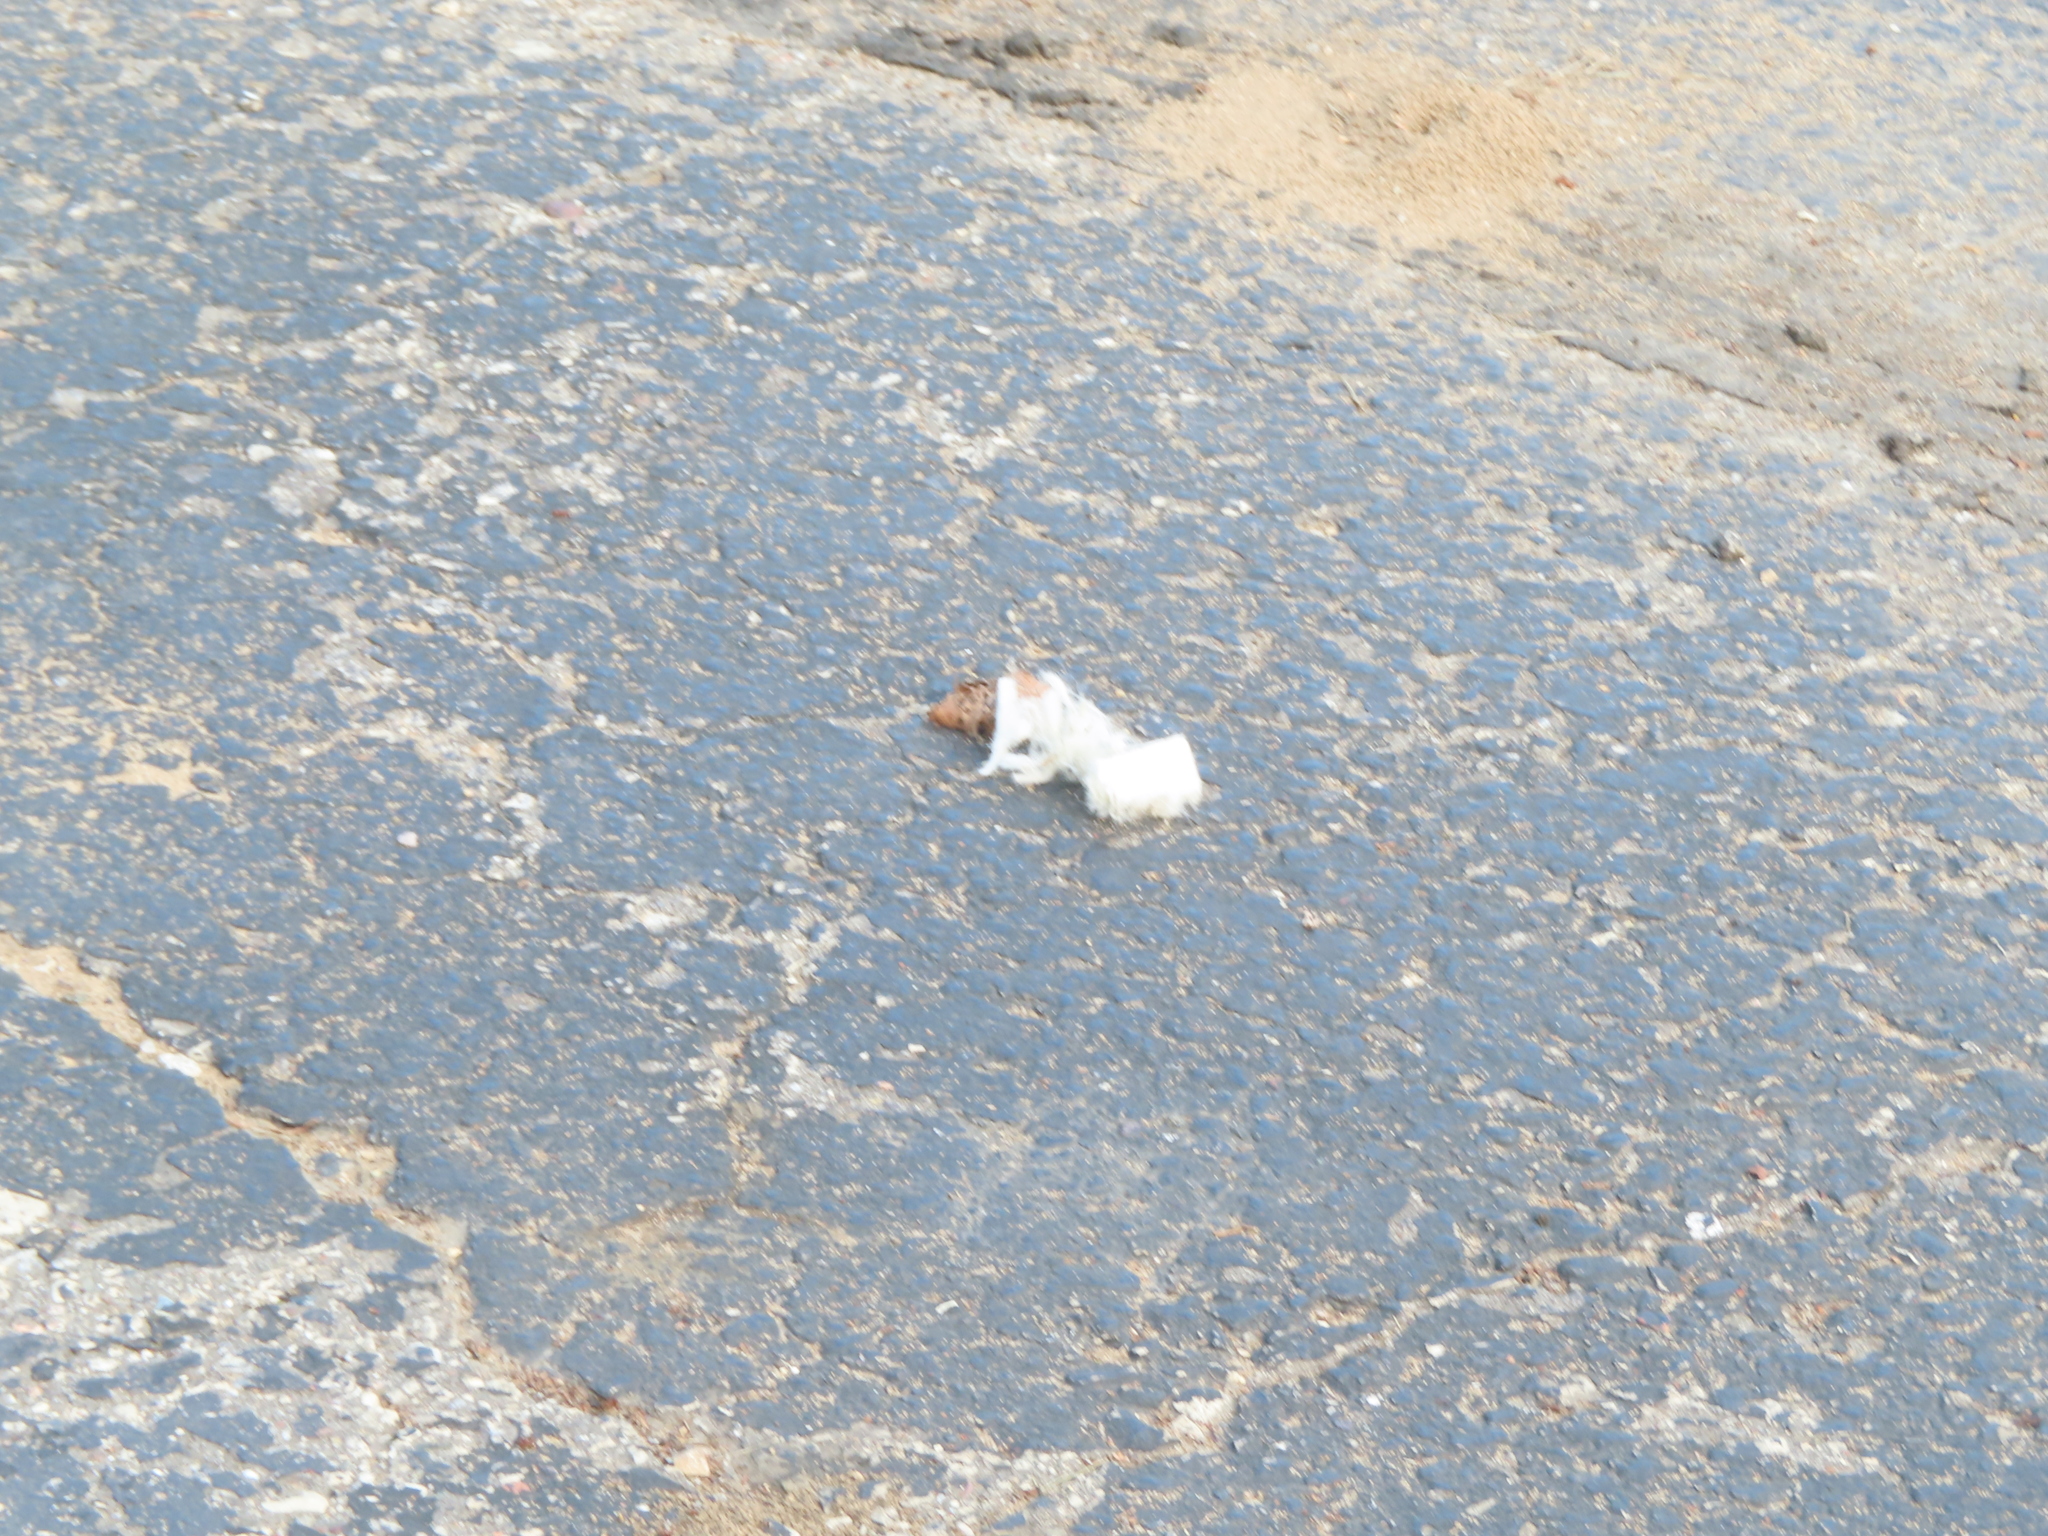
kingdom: Animalia
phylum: Chordata
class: Aves
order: Passeriformes
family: Passeridae
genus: Passer
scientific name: Passer domesticus
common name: House sparrow
